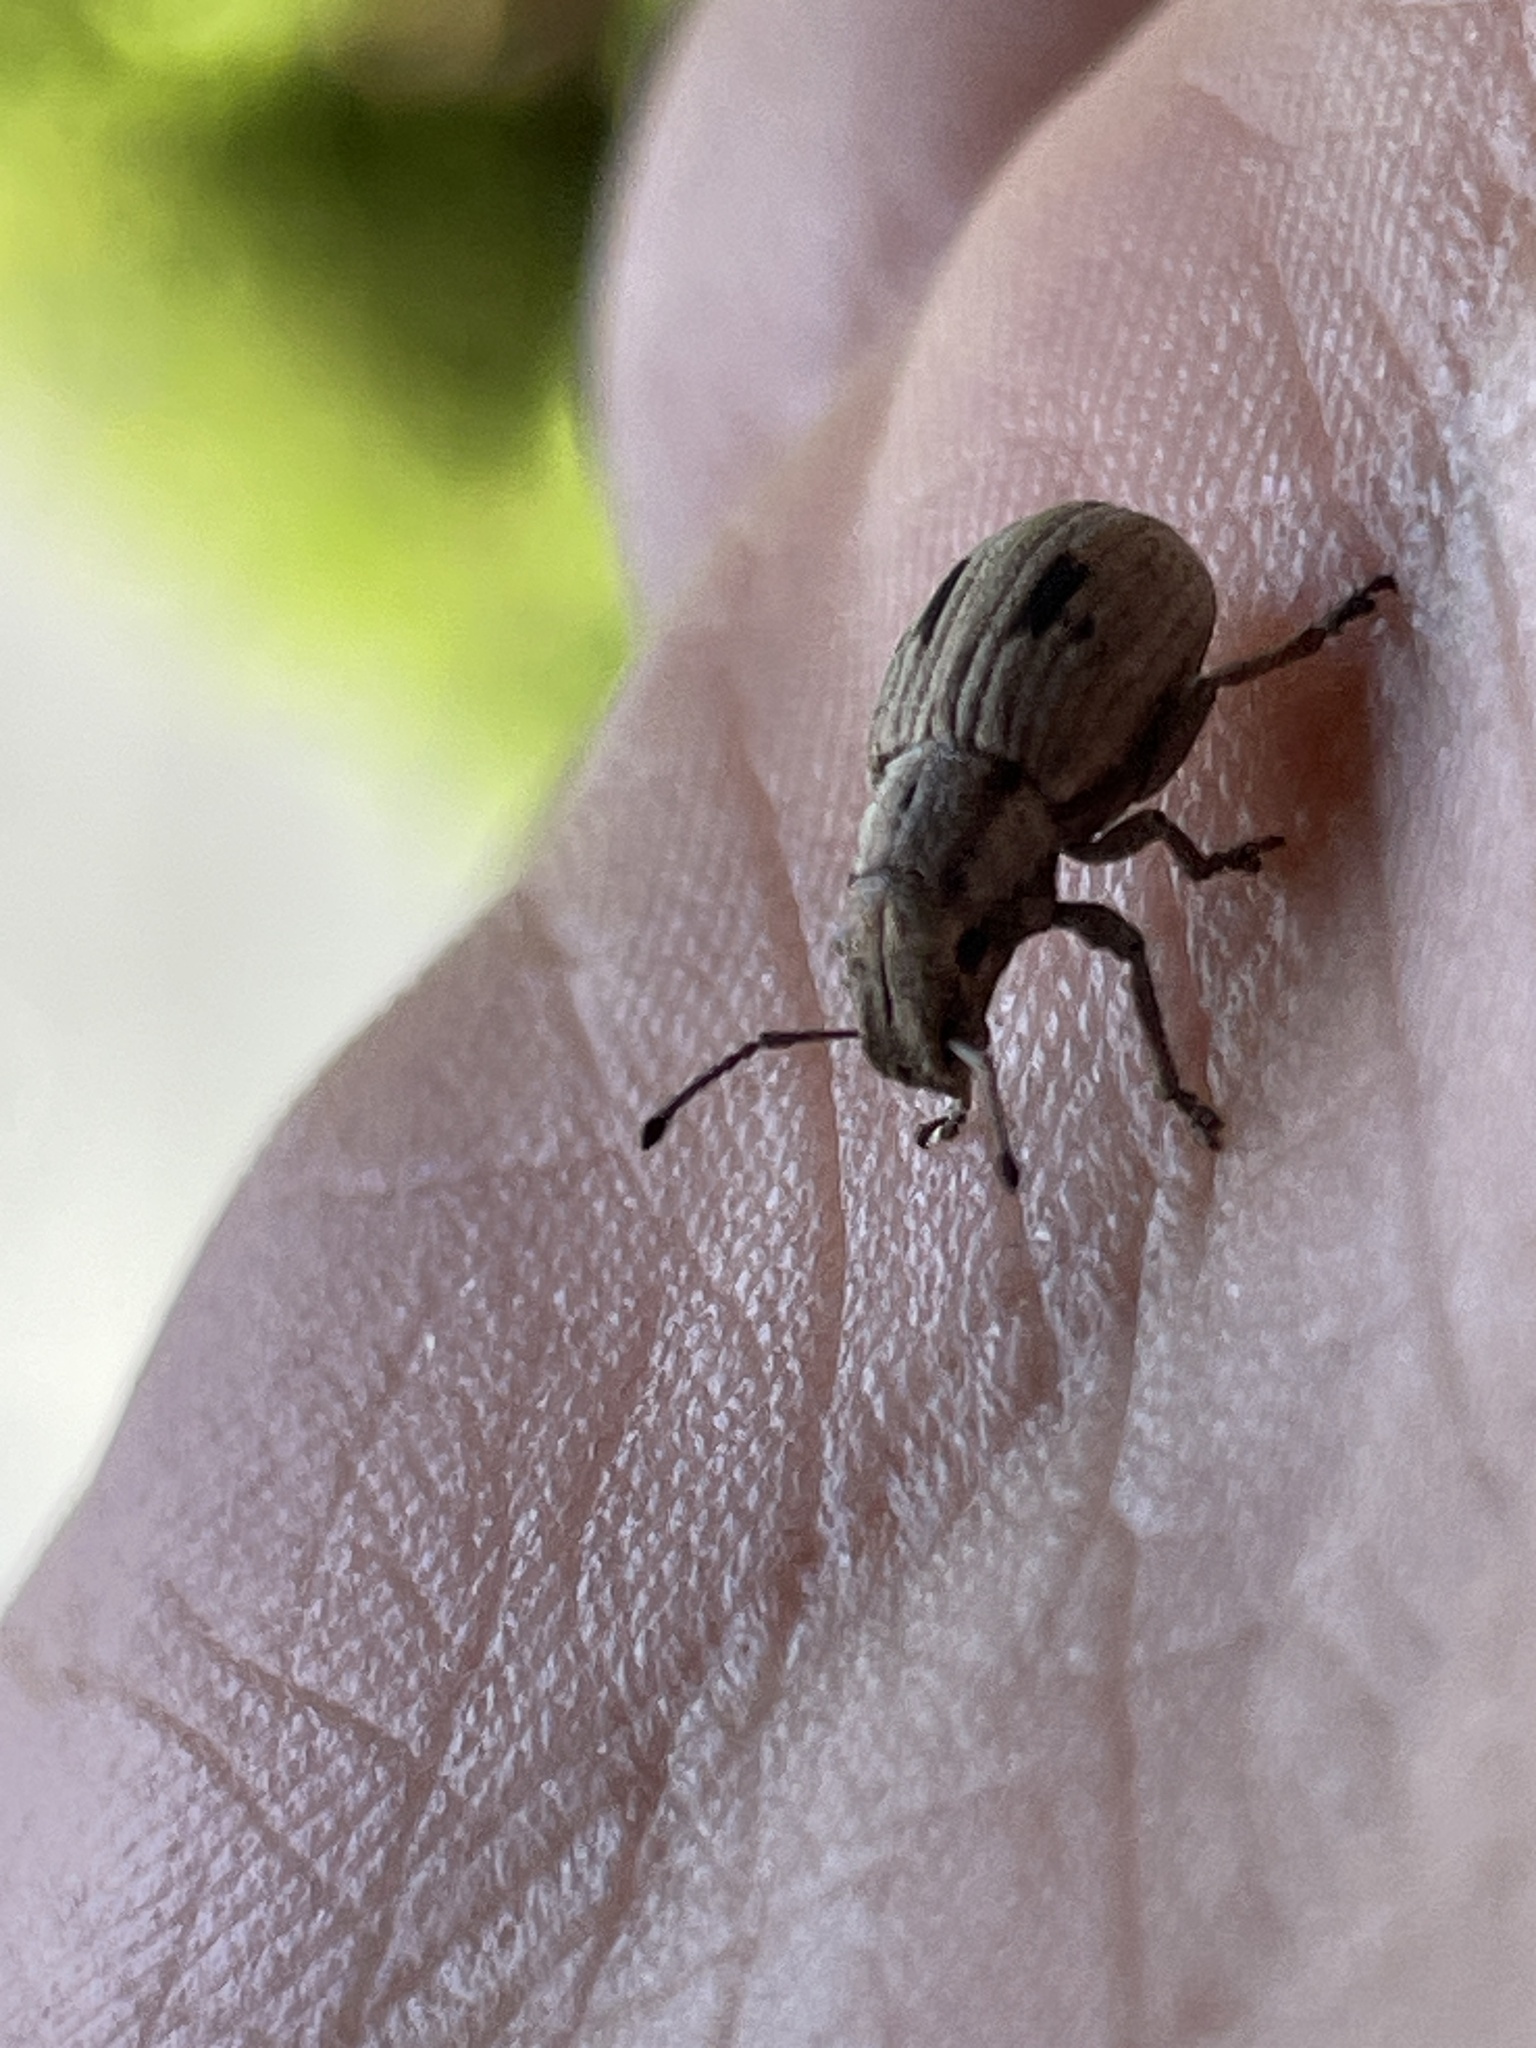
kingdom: Animalia
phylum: Arthropoda
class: Insecta
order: Coleoptera
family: Curculionidae
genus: Eurymetopus
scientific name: Eurymetopus birabeni
